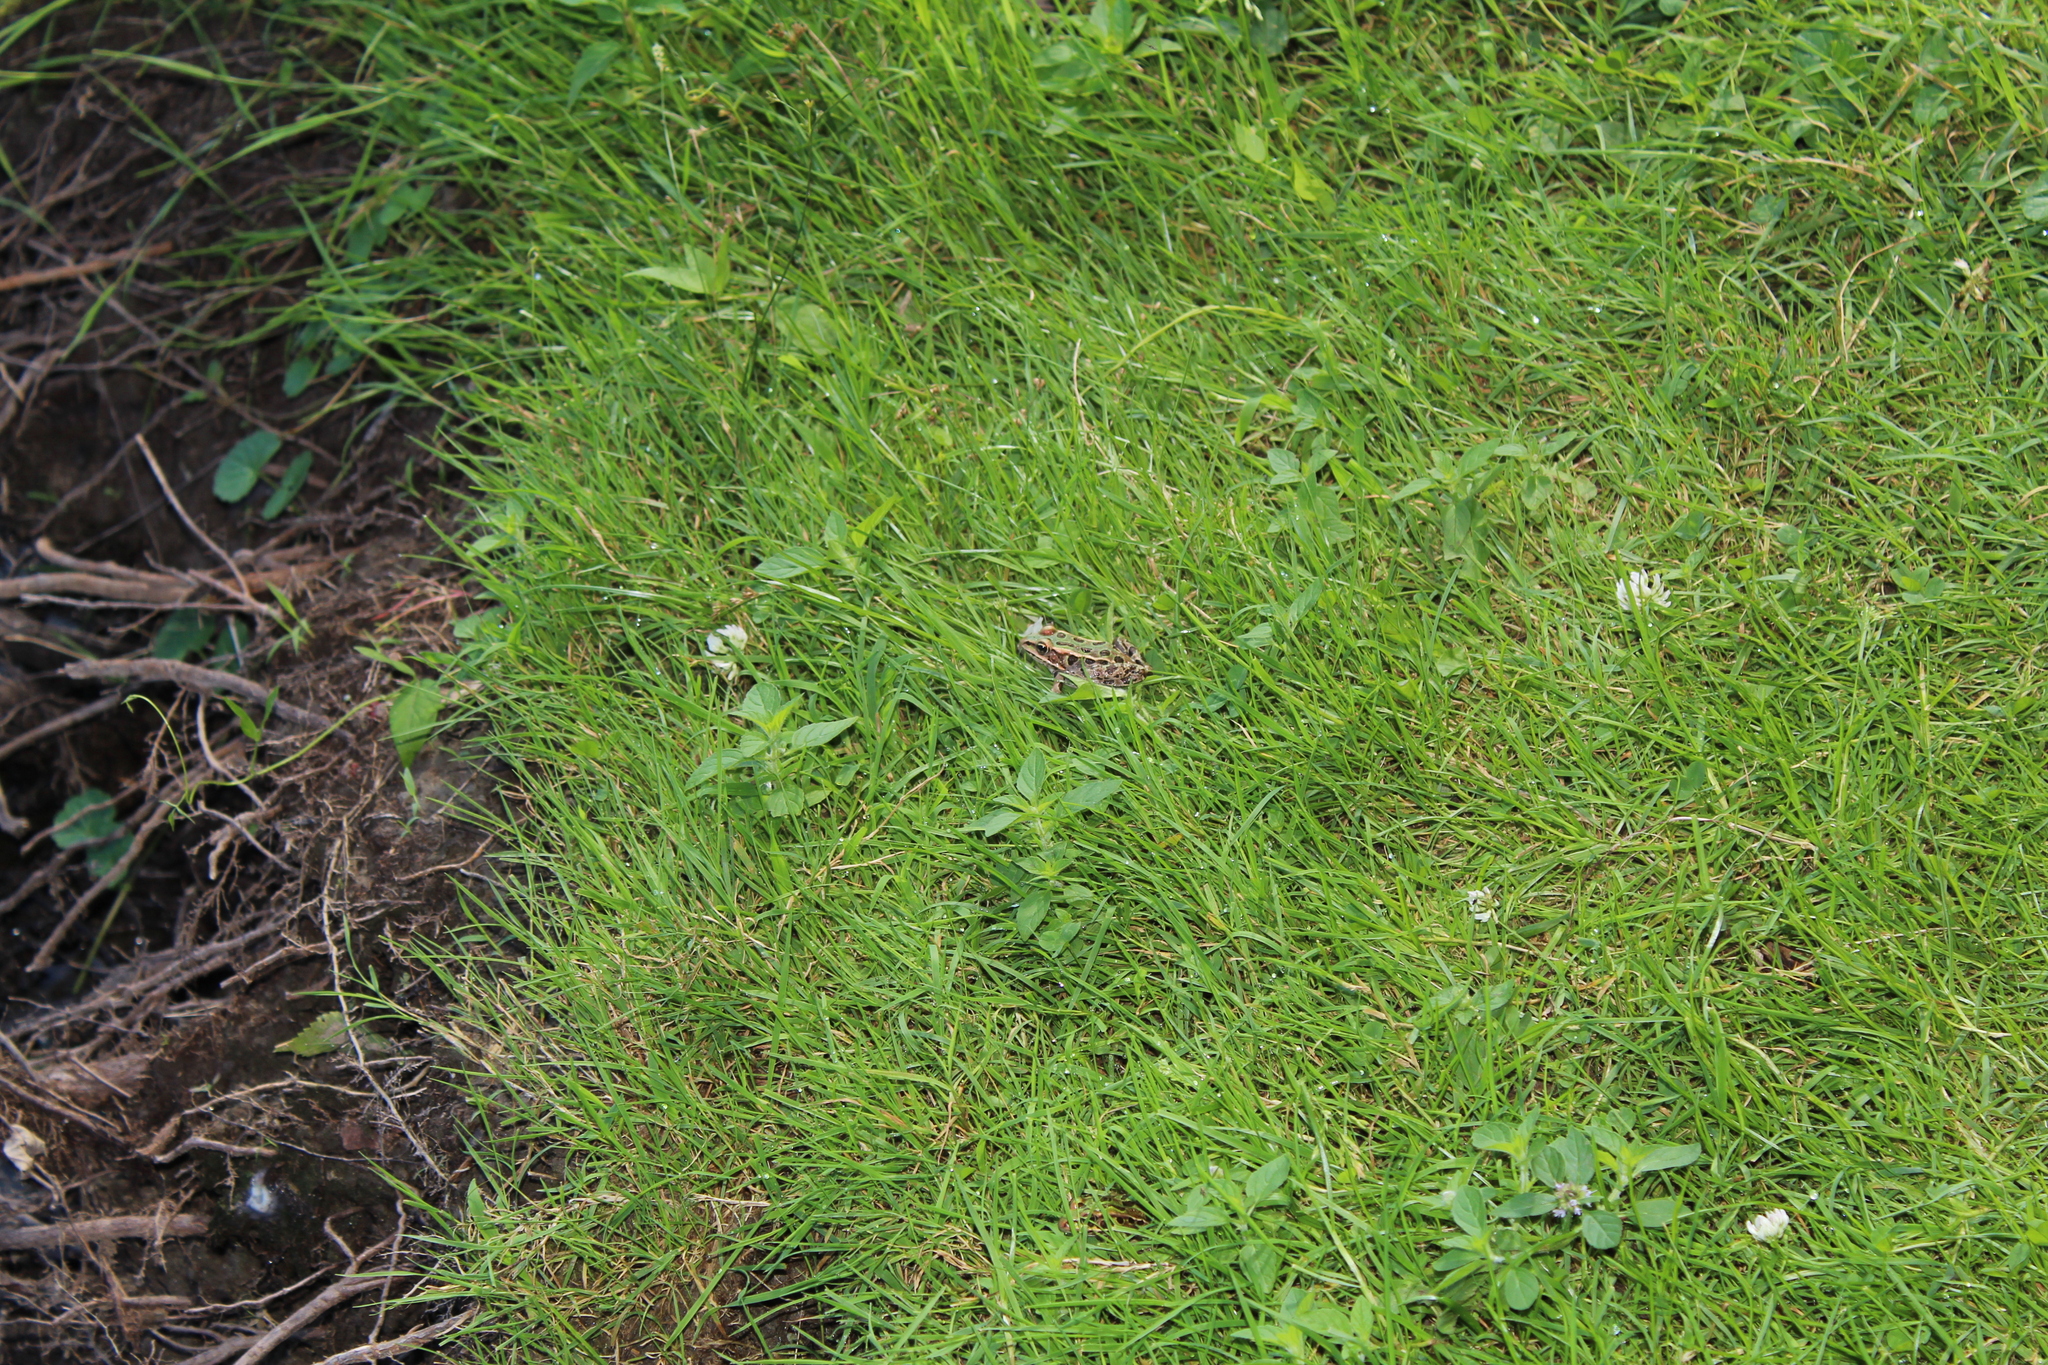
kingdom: Animalia
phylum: Chordata
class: Amphibia
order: Anura
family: Ranidae
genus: Lithobates
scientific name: Lithobates pipiens
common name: Northern leopard frog
